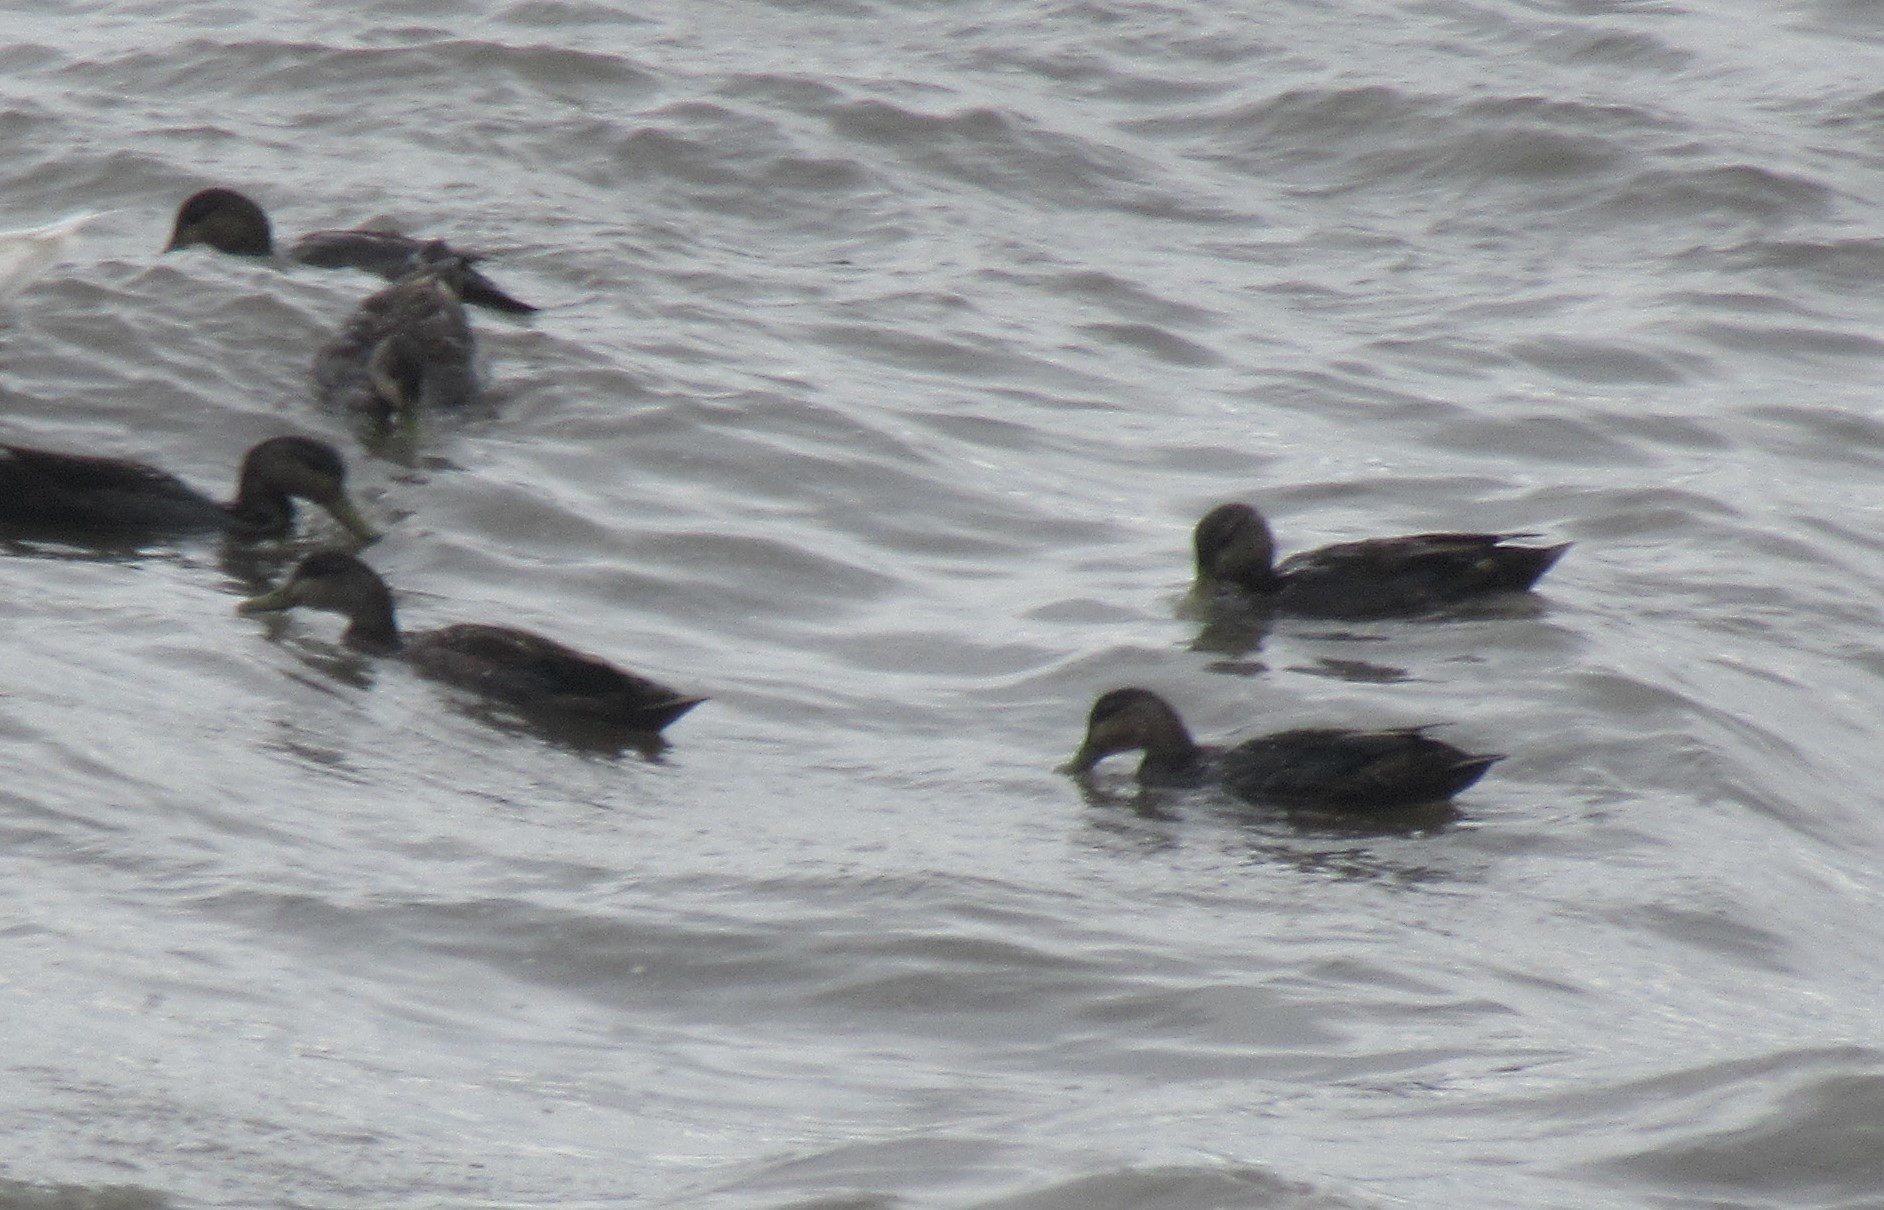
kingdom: Animalia
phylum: Chordata
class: Aves
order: Anseriformes
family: Anatidae
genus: Anas
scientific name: Anas rubripes
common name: American black duck
